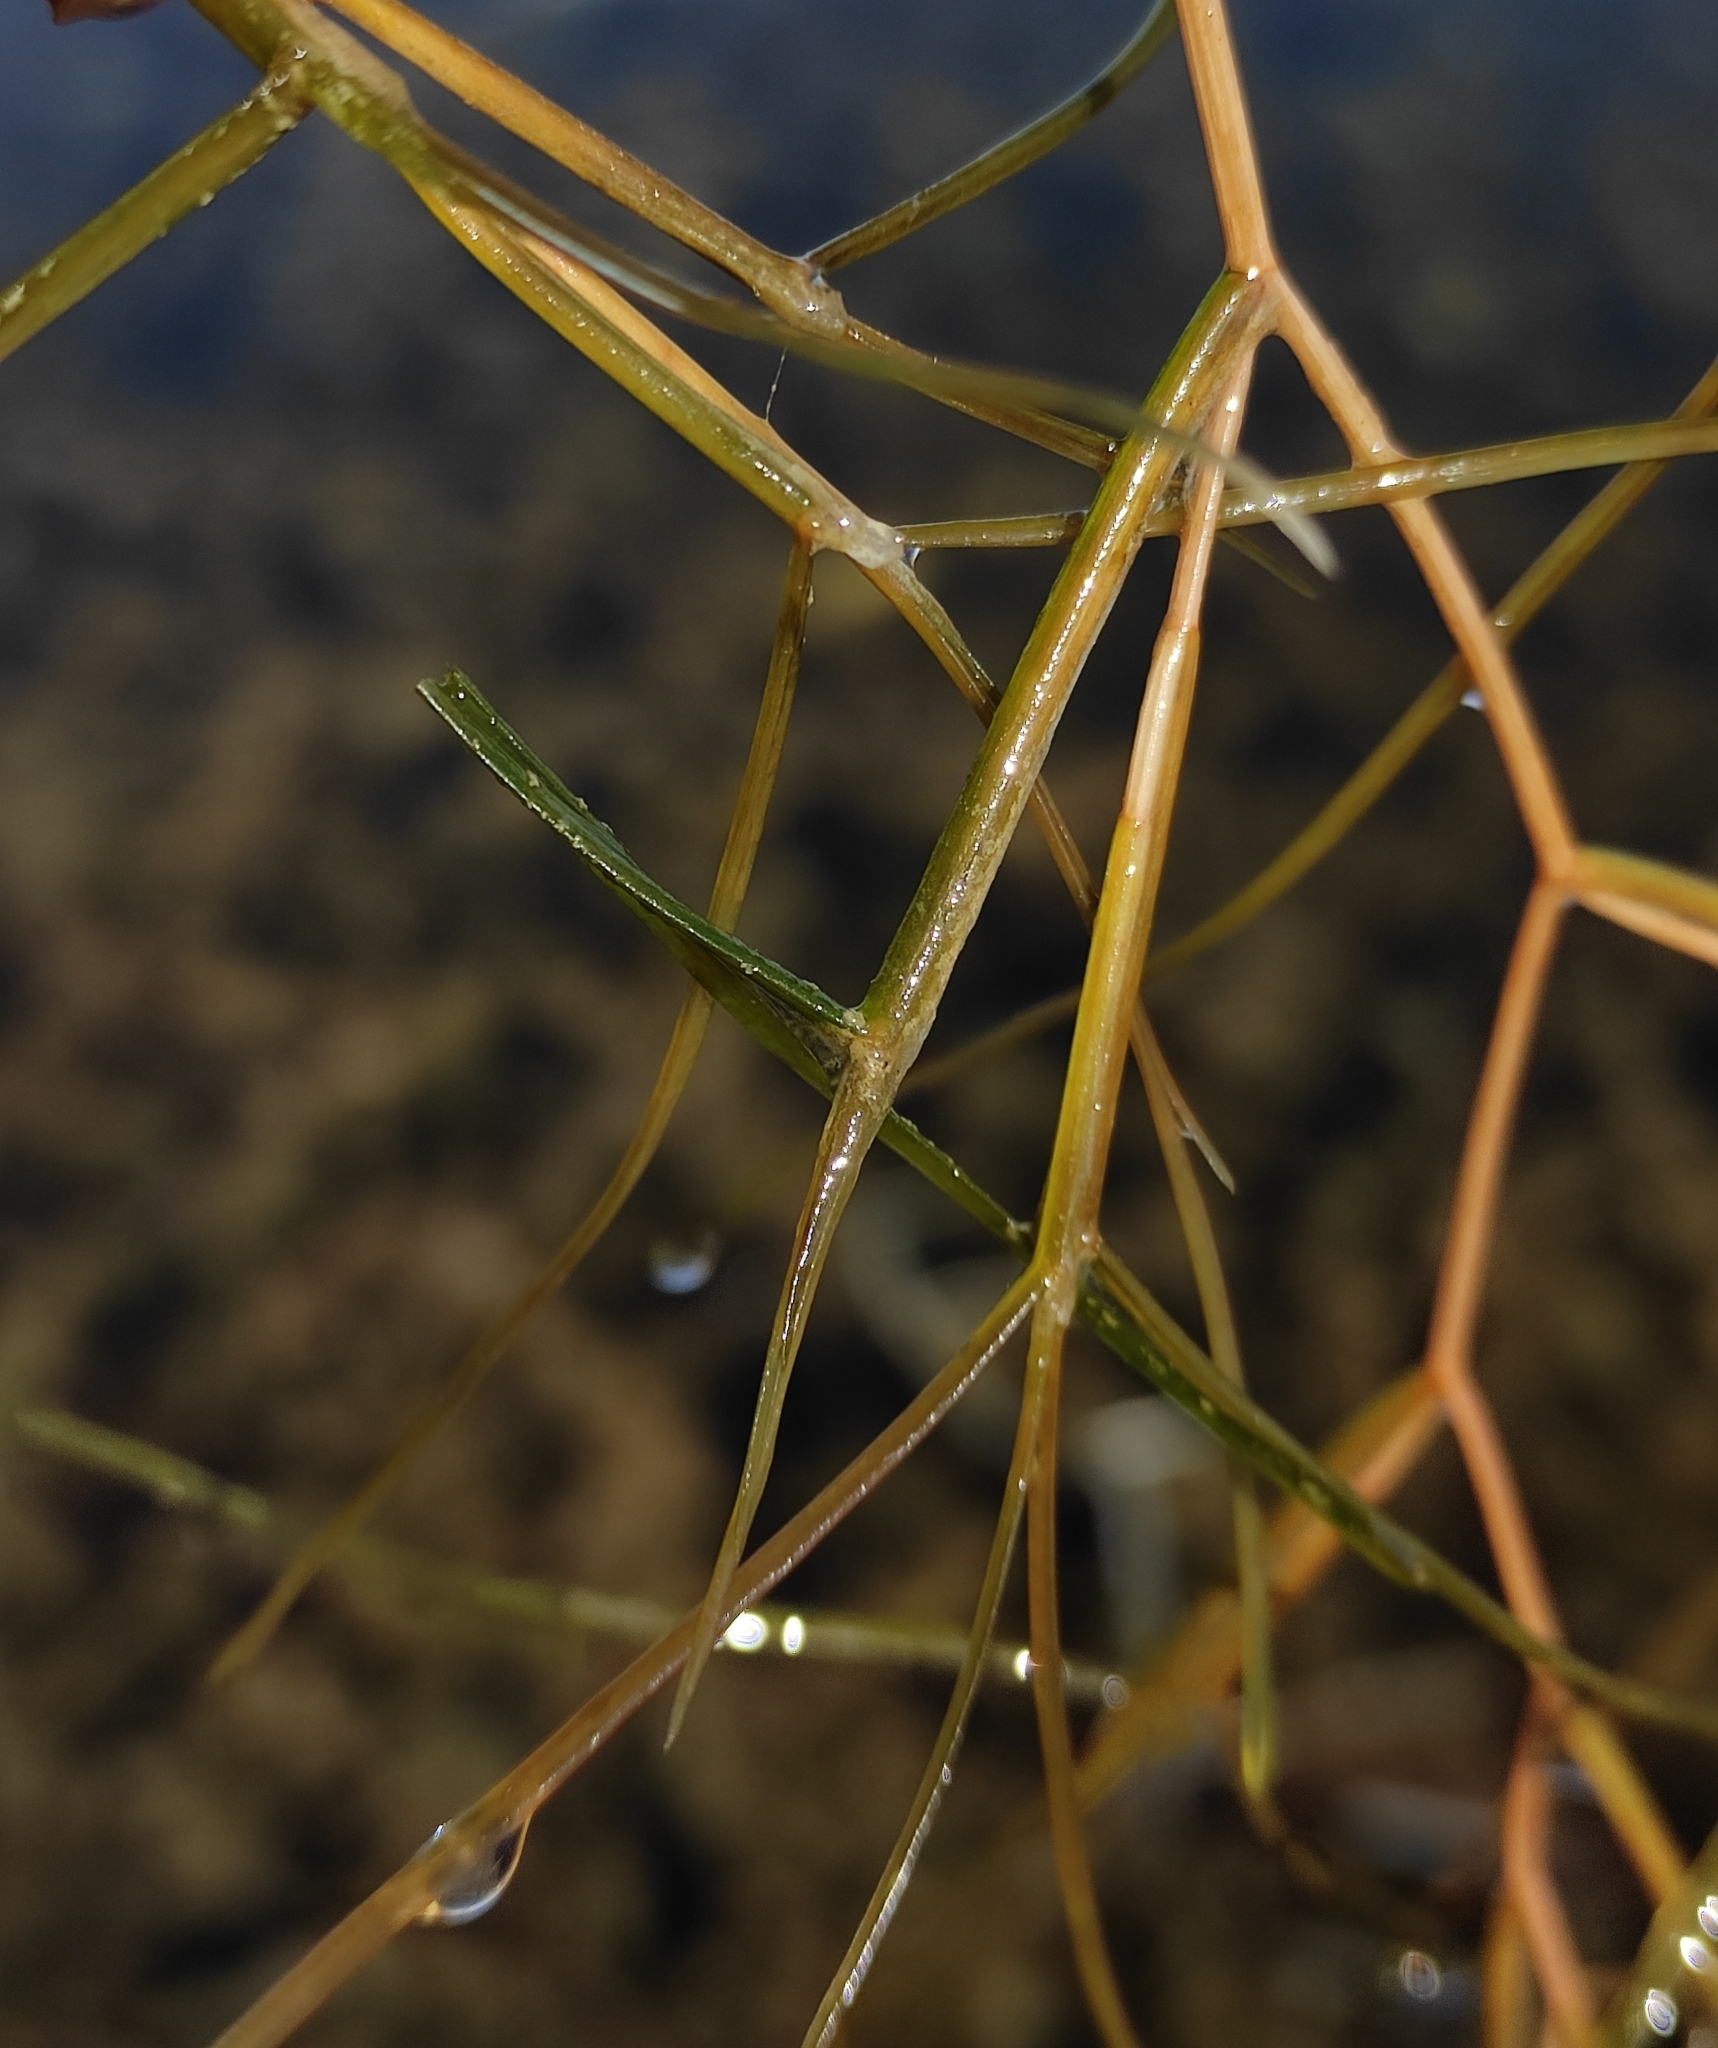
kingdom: Plantae
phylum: Tracheophyta
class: Liliopsida
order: Alismatales
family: Potamogetonaceae
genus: Stuckenia
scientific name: Stuckenia pectinata
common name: Sago pondweed
